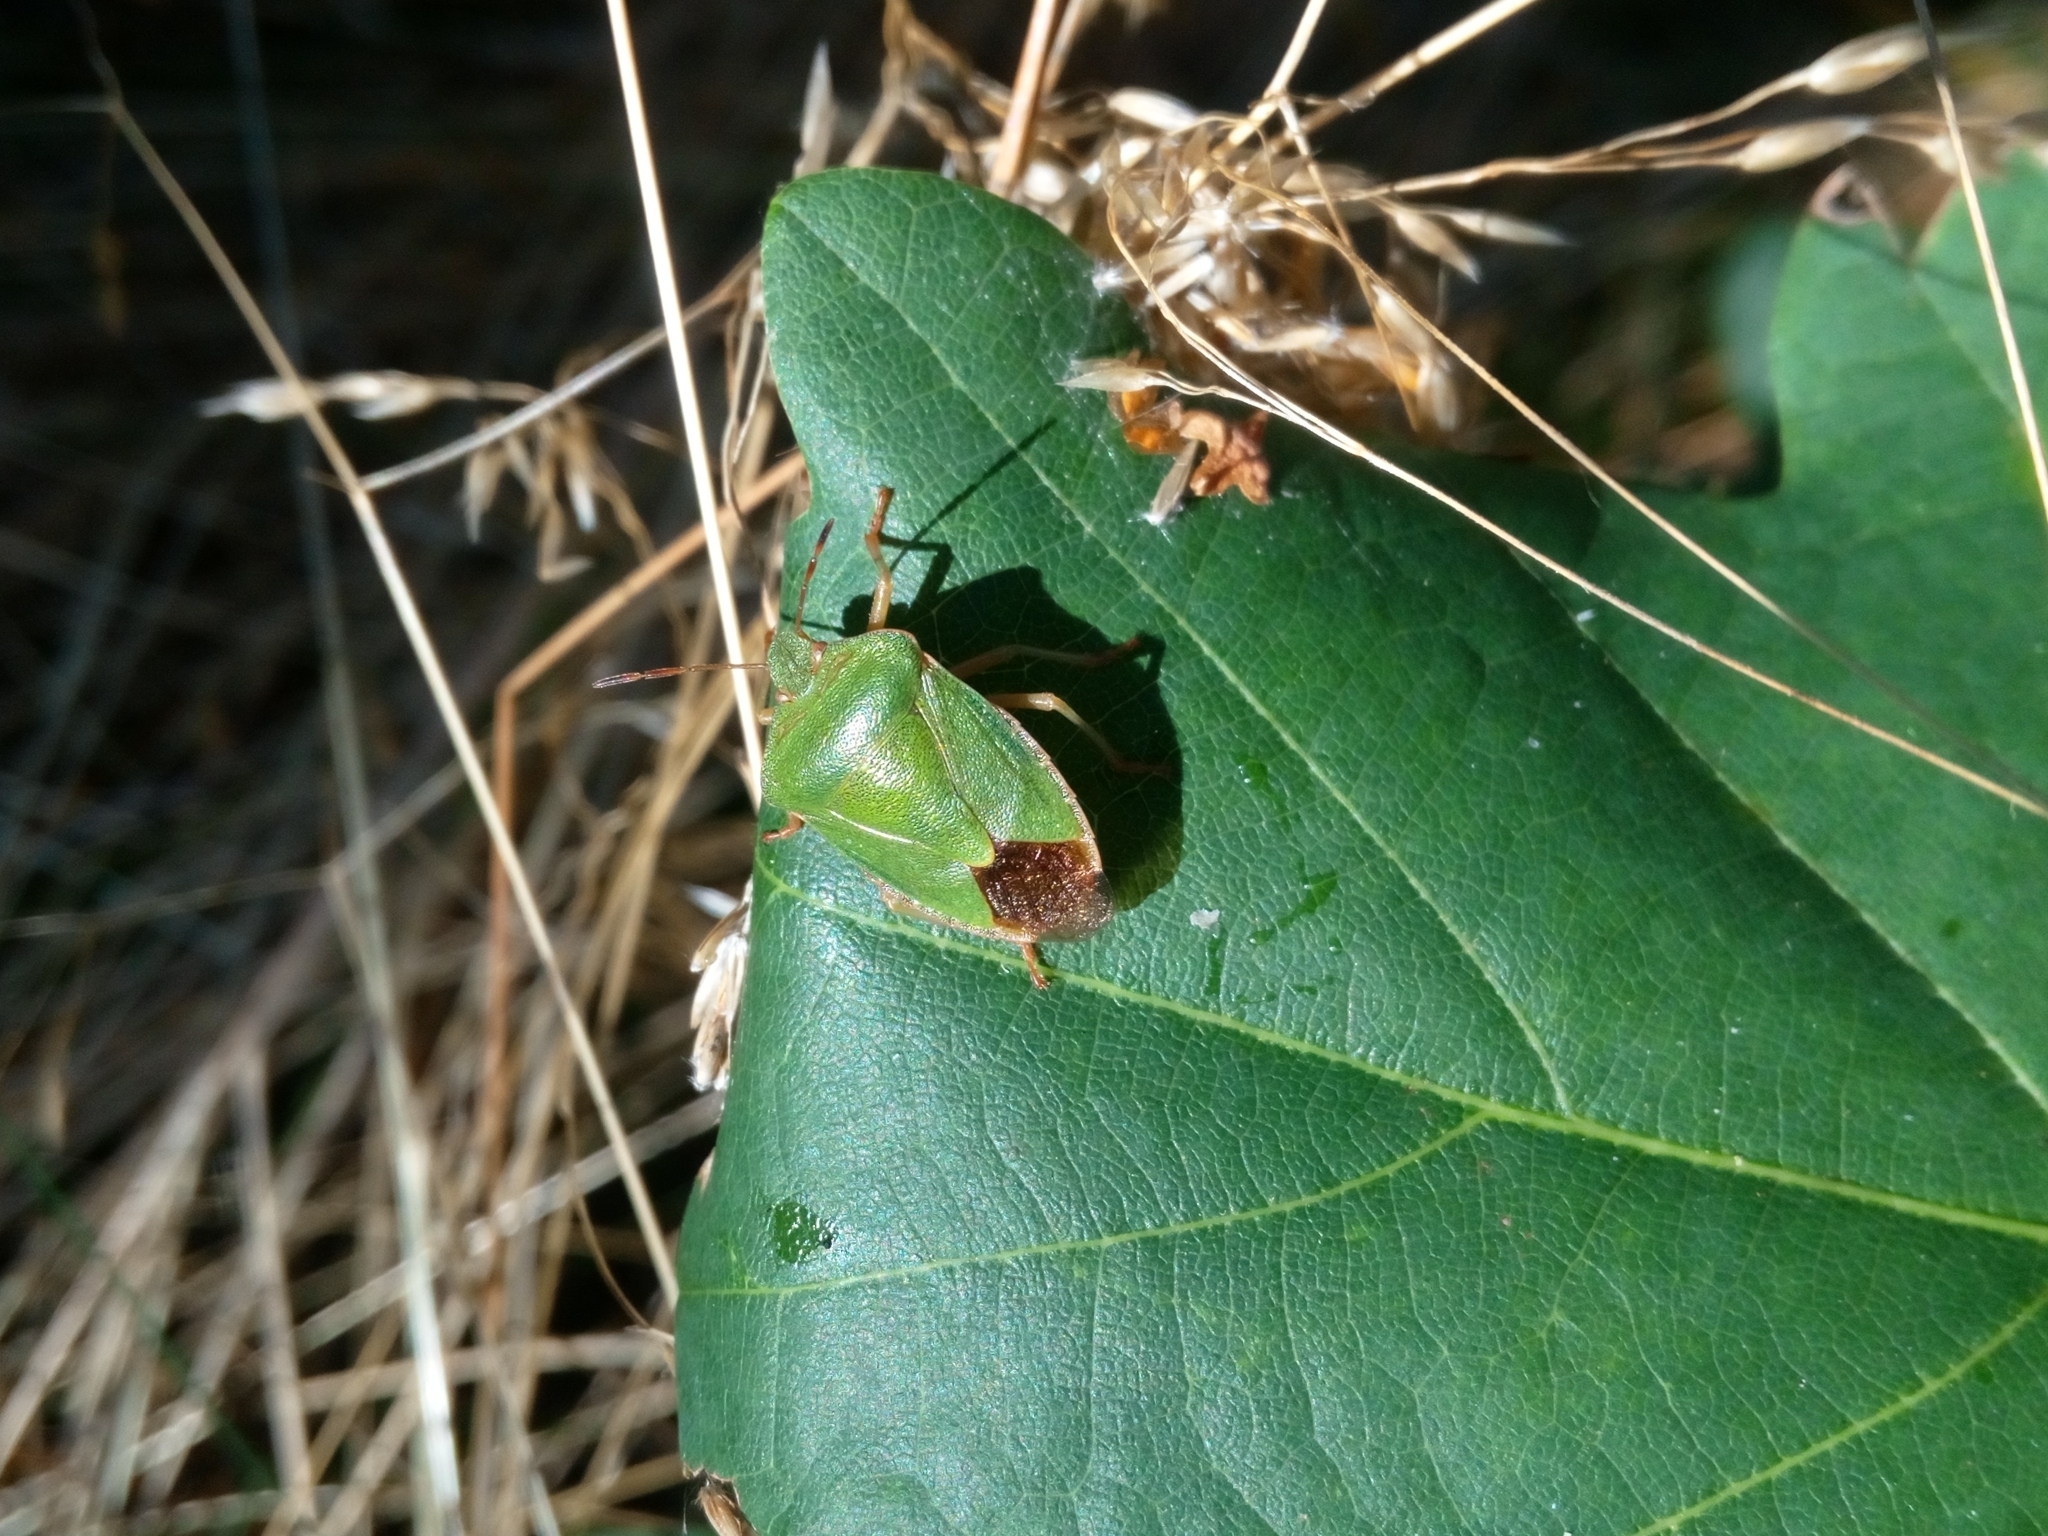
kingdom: Animalia
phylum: Arthropoda
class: Insecta
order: Hemiptera
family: Pentatomidae
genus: Palomena
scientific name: Palomena prasina
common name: Green shieldbug
